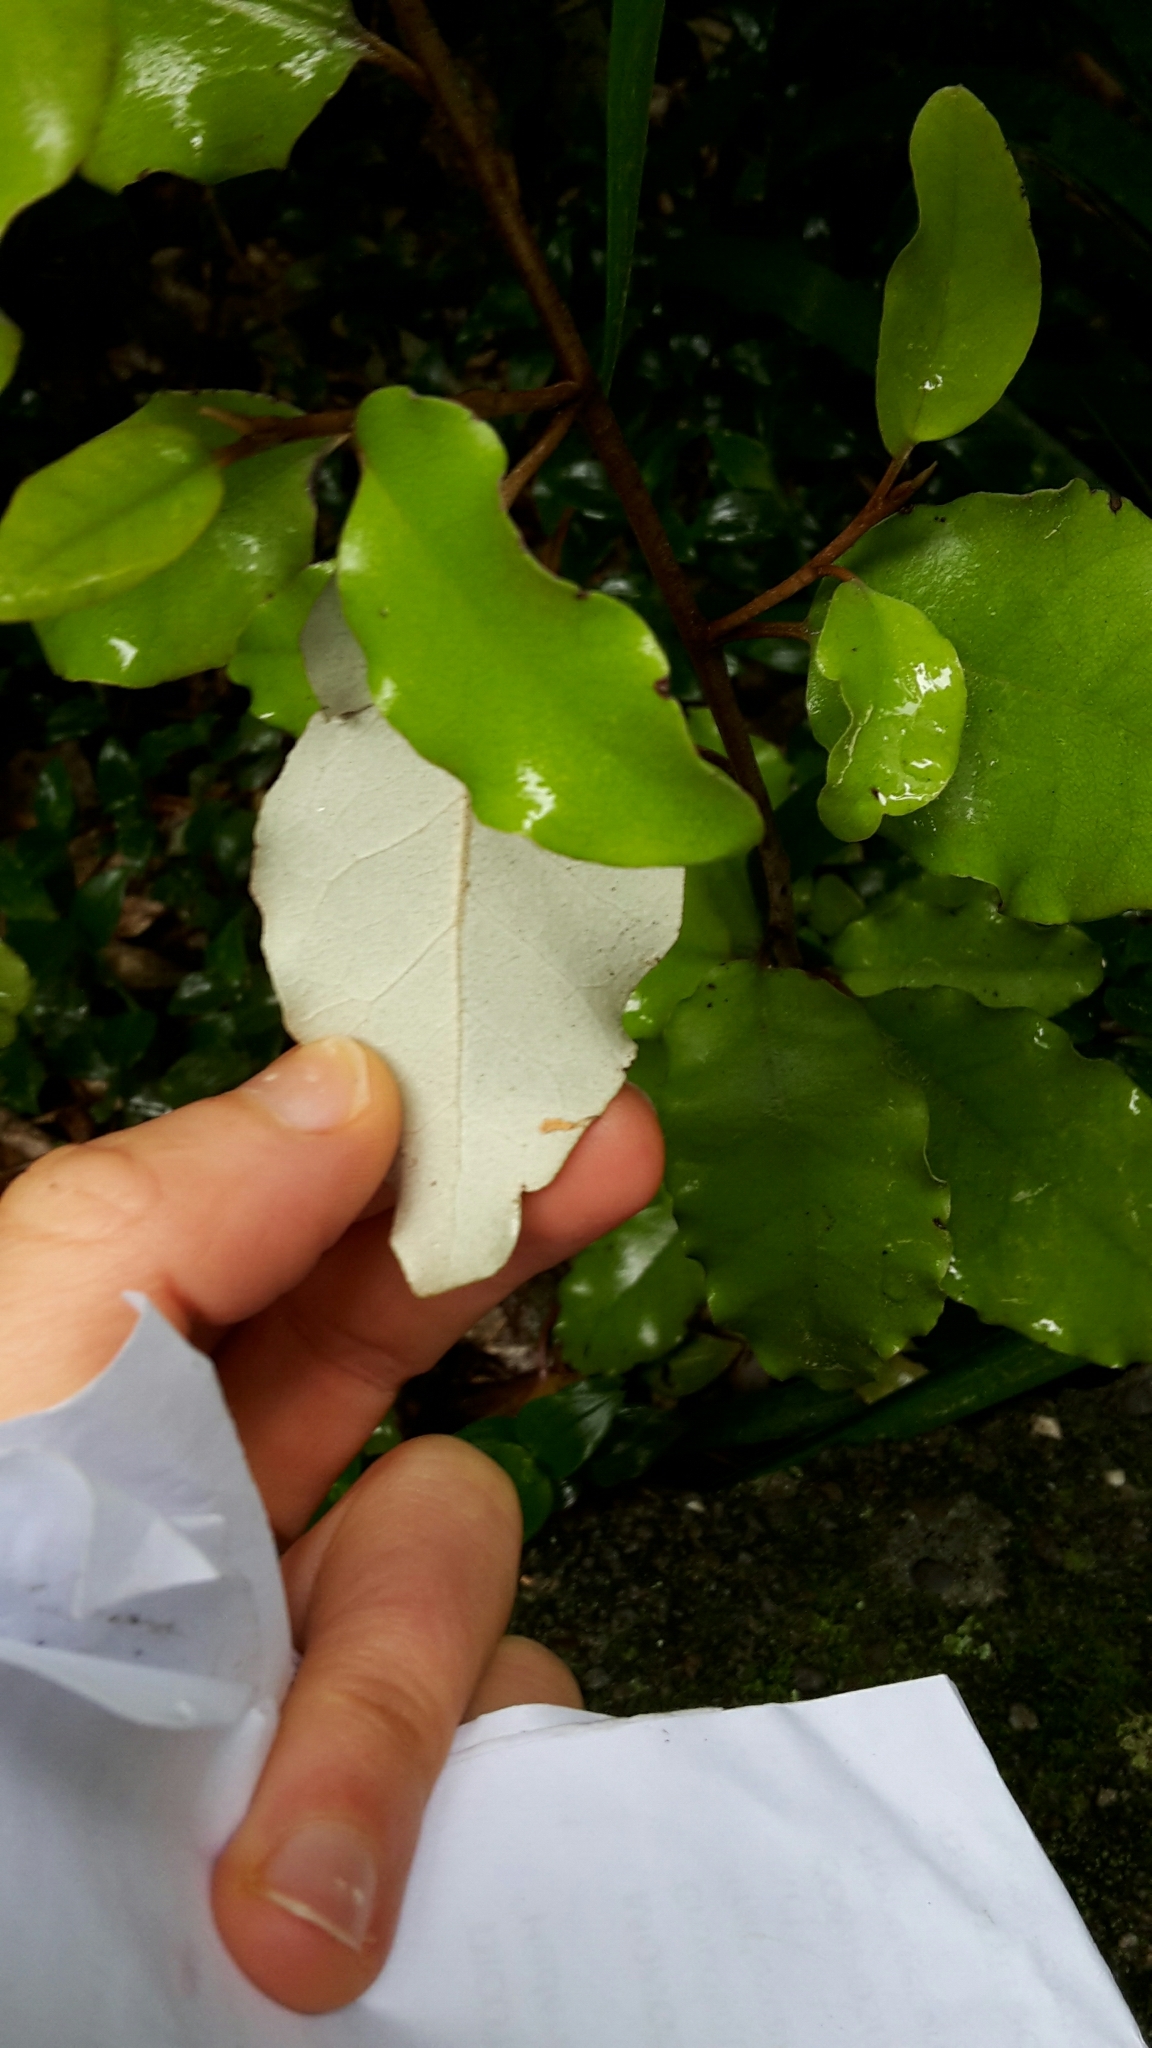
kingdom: Plantae
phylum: Tracheophyta
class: Magnoliopsida
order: Asterales
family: Asteraceae
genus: Olearia
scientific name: Olearia paniculata
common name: Akiraho
